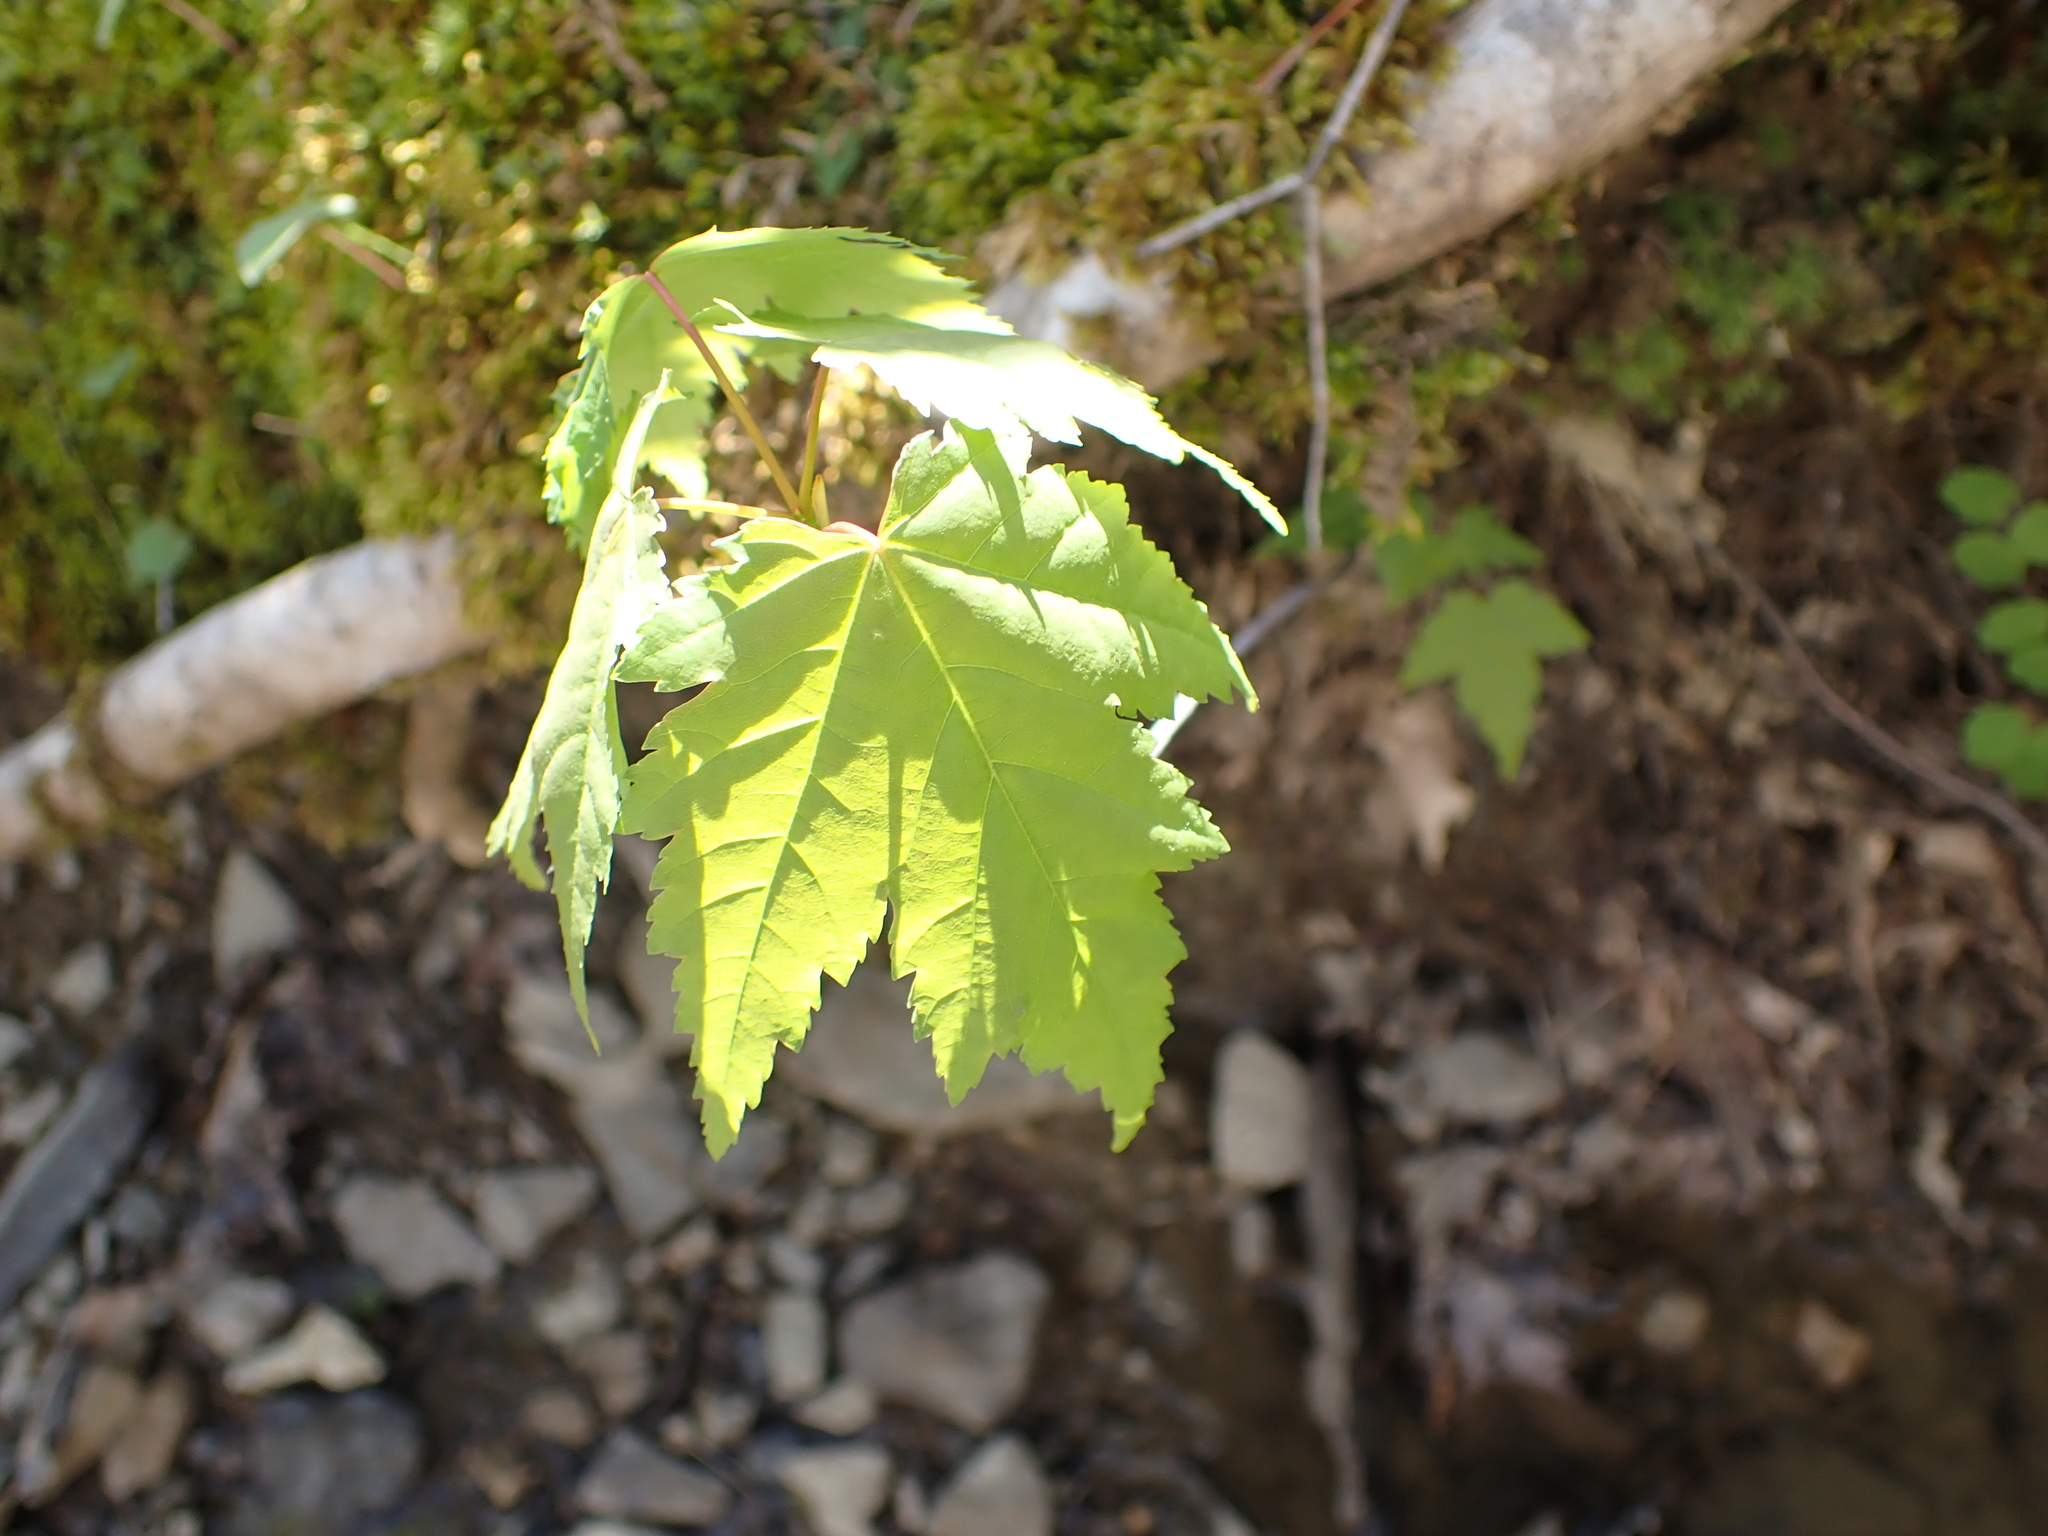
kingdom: Plantae
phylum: Tracheophyta
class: Magnoliopsida
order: Sapindales
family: Sapindaceae
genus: Acer
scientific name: Acer rubrum
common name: Red maple
